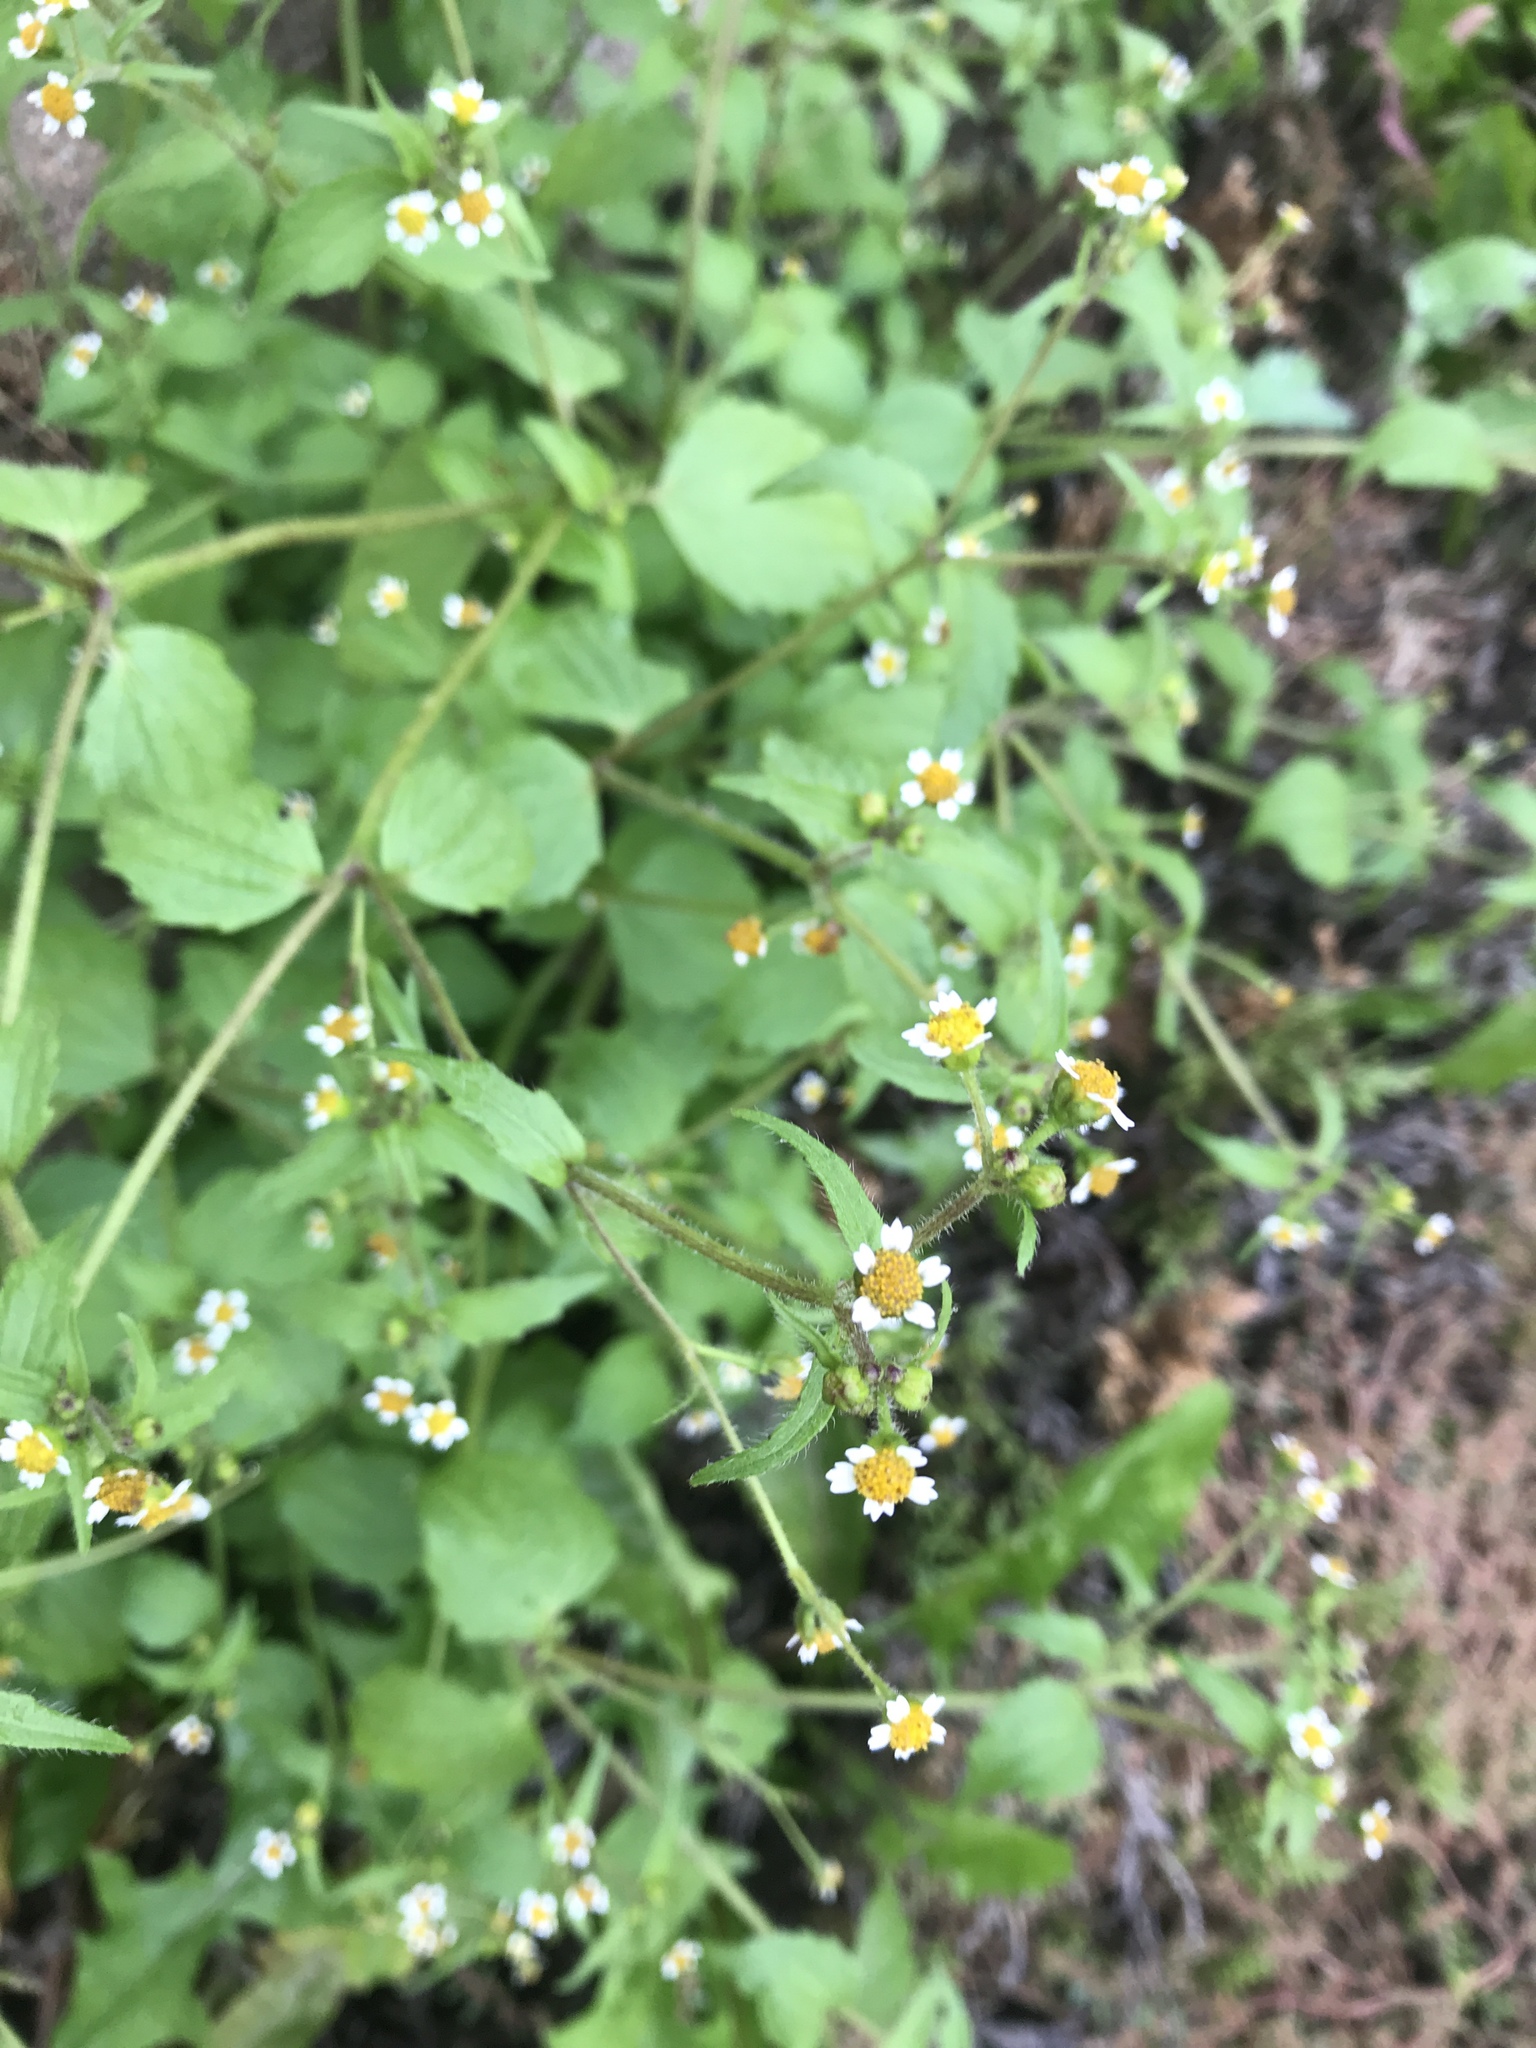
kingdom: Plantae
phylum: Tracheophyta
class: Magnoliopsida
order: Asterales
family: Asteraceae
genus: Galinsoga
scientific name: Galinsoga quadriradiata
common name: Shaggy soldier
